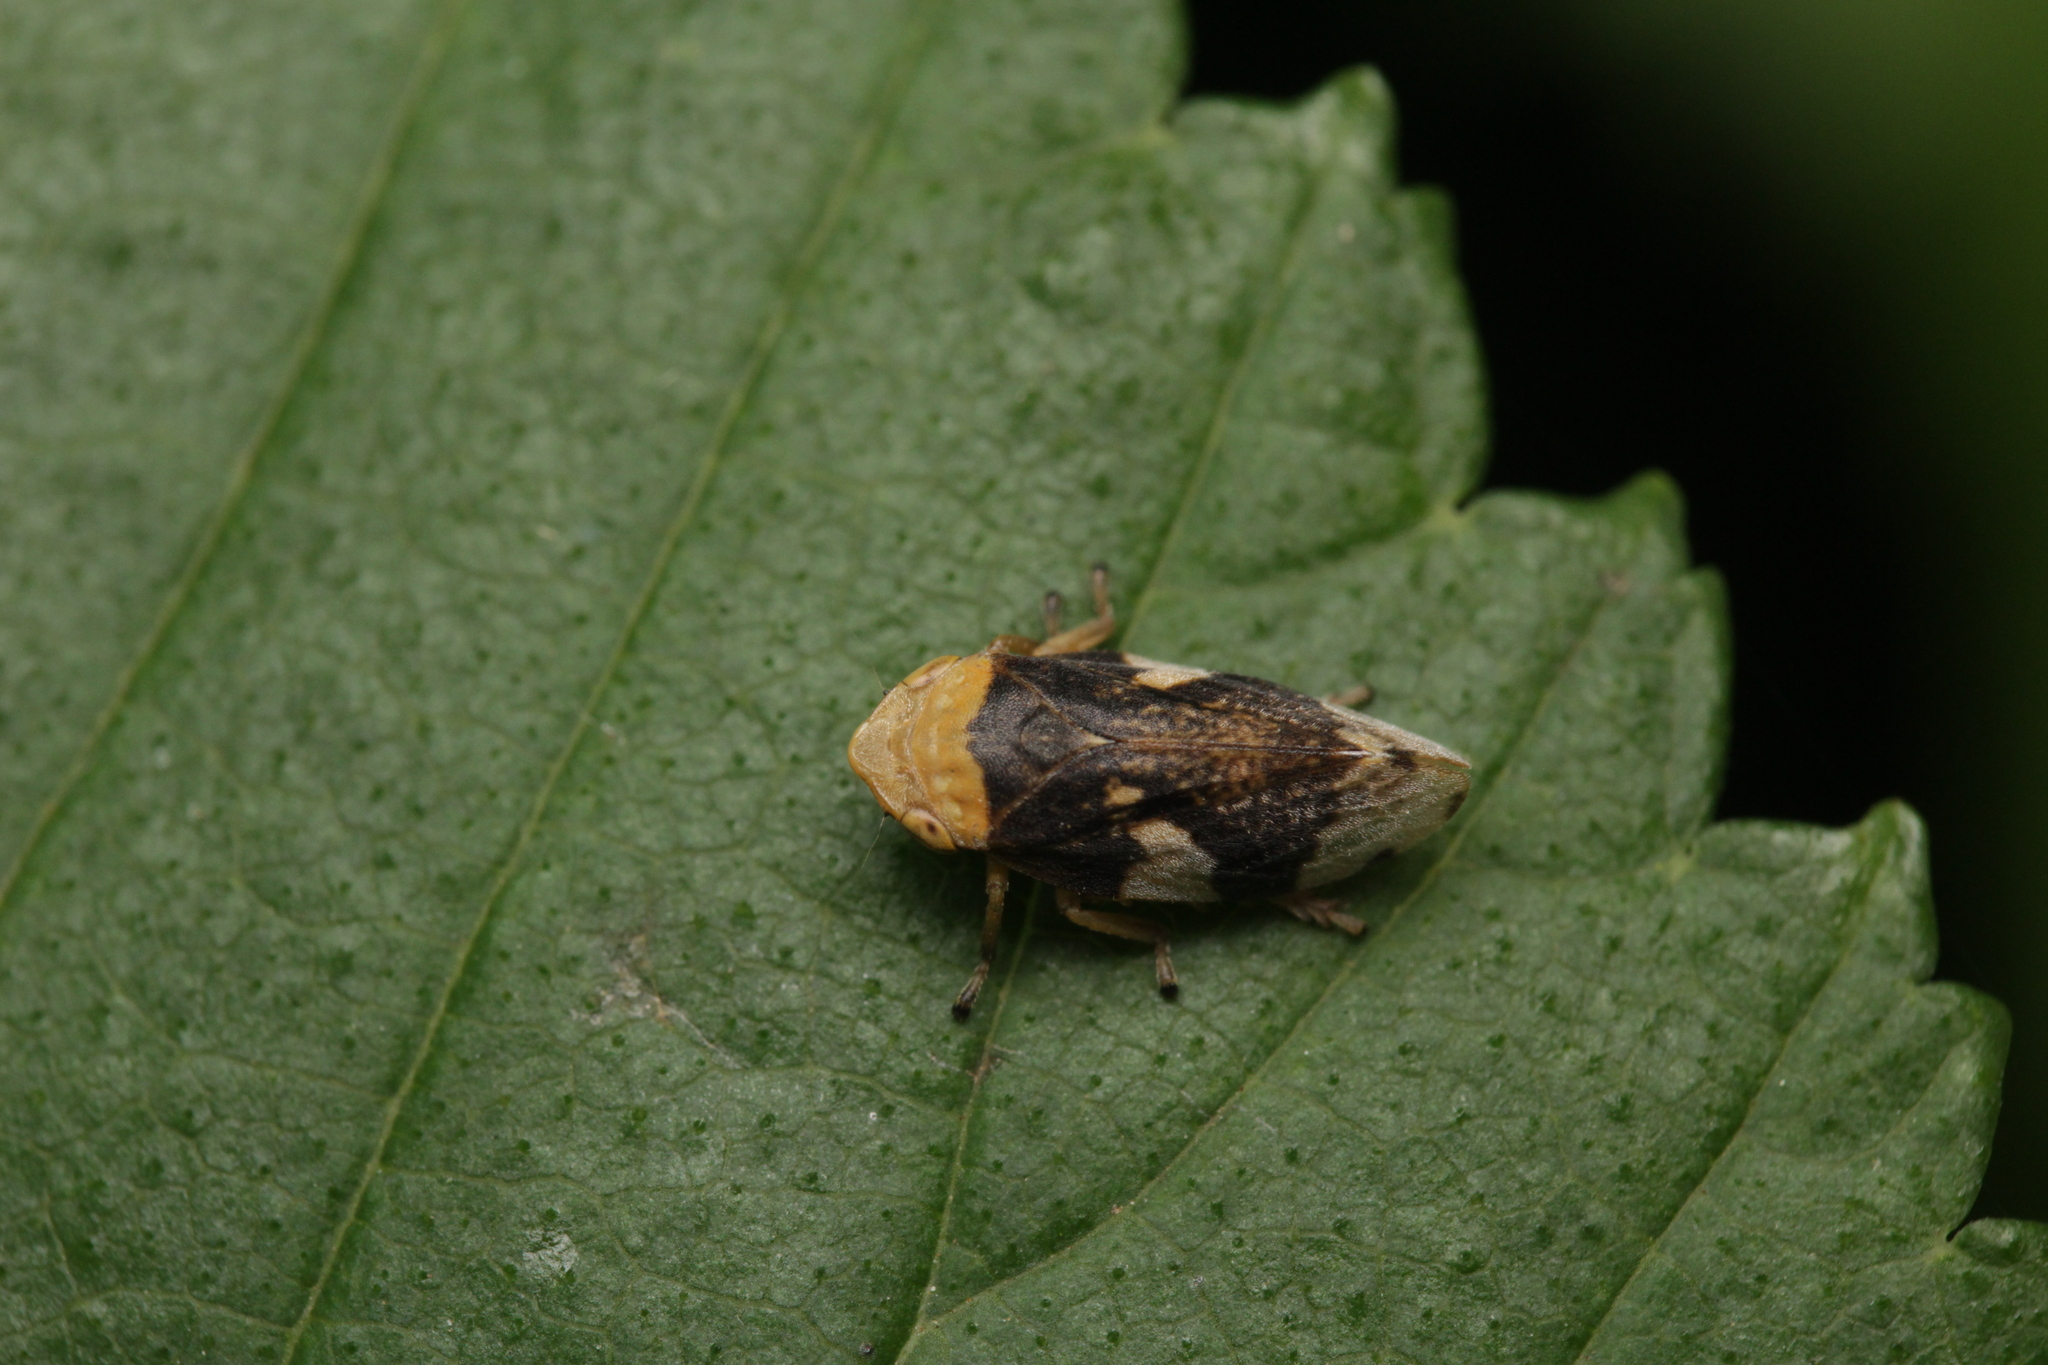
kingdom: Animalia
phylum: Arthropoda
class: Insecta
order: Hemiptera
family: Aphrophoridae
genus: Philaenus
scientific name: Philaenus spumarius
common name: Meadow spittlebug
